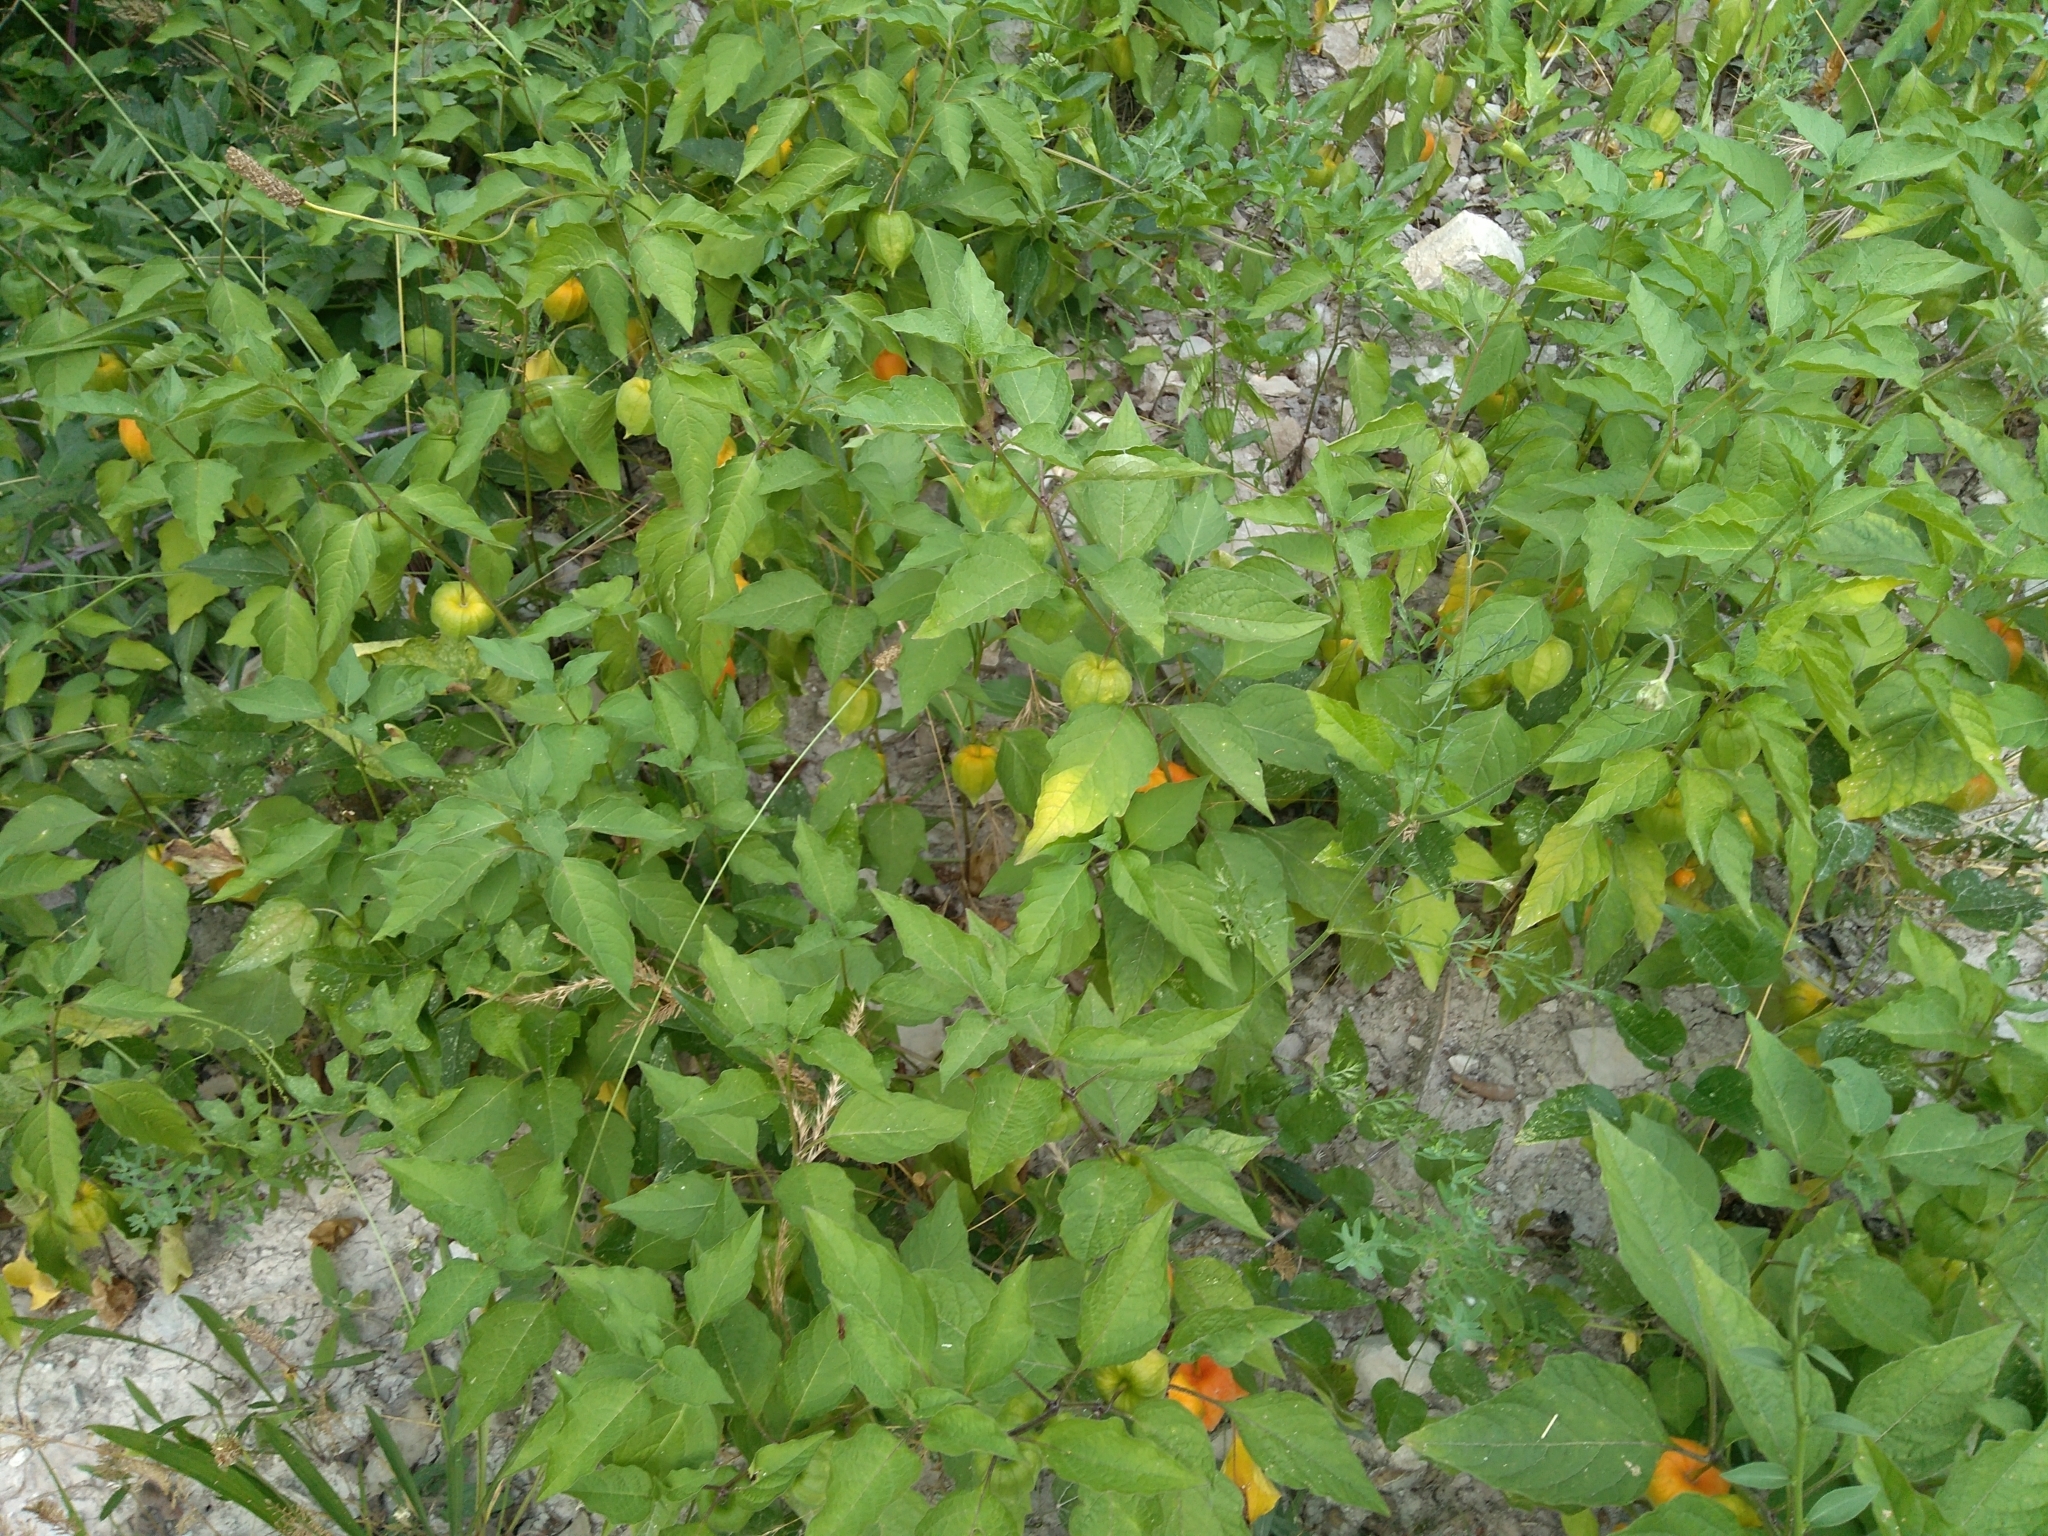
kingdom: Plantae
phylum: Tracheophyta
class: Magnoliopsida
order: Solanales
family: Solanaceae
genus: Alkekengi
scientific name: Alkekengi officinarum
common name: Japanese-lantern
